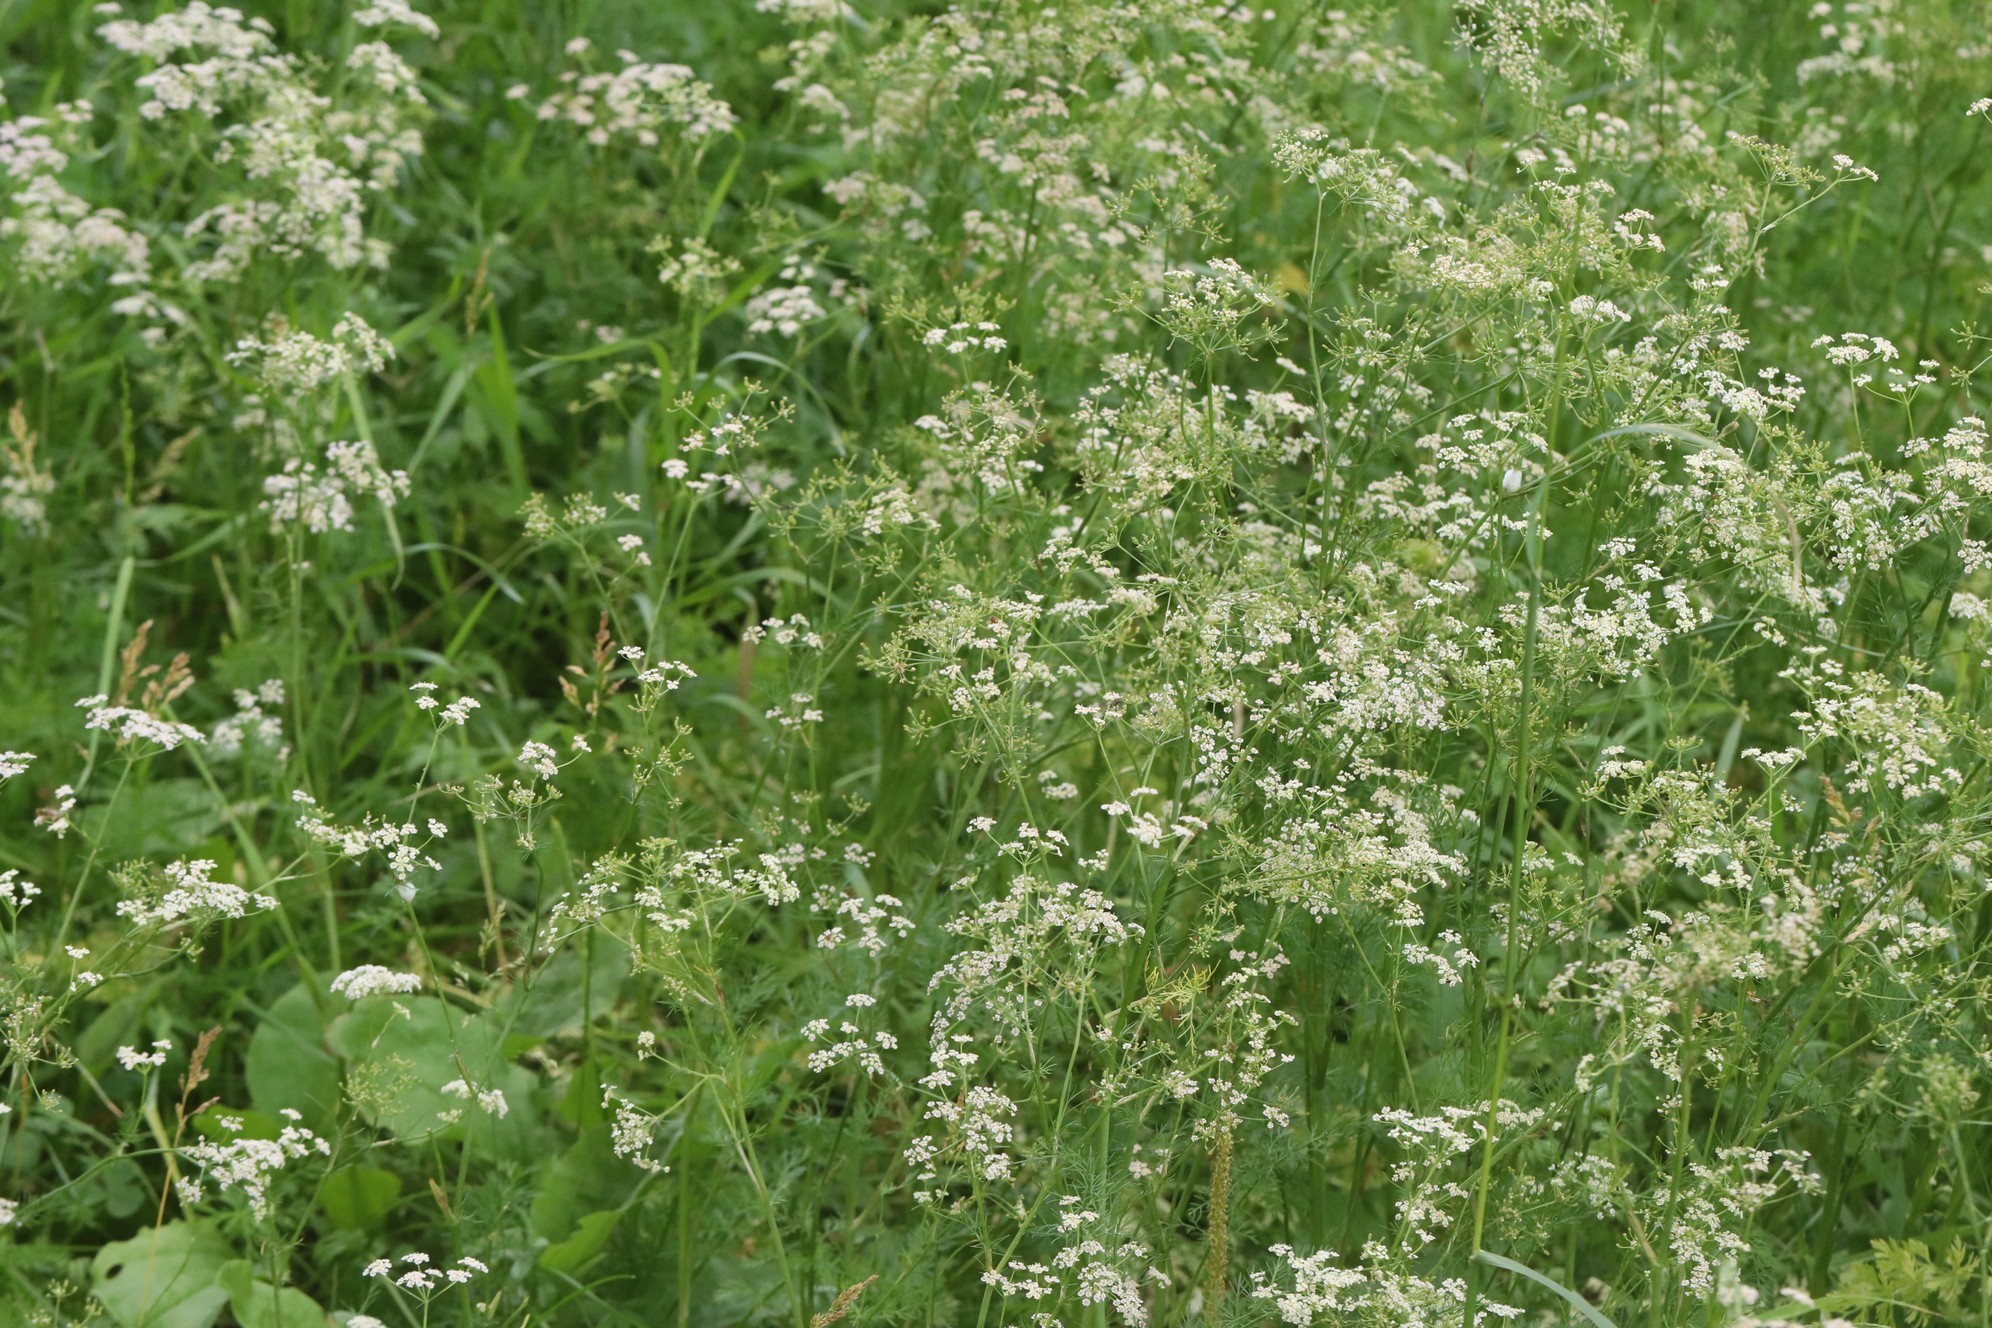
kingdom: Plantae
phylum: Tracheophyta
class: Magnoliopsida
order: Apiales
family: Apiaceae
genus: Carum
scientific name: Carum carvi
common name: Caraway
